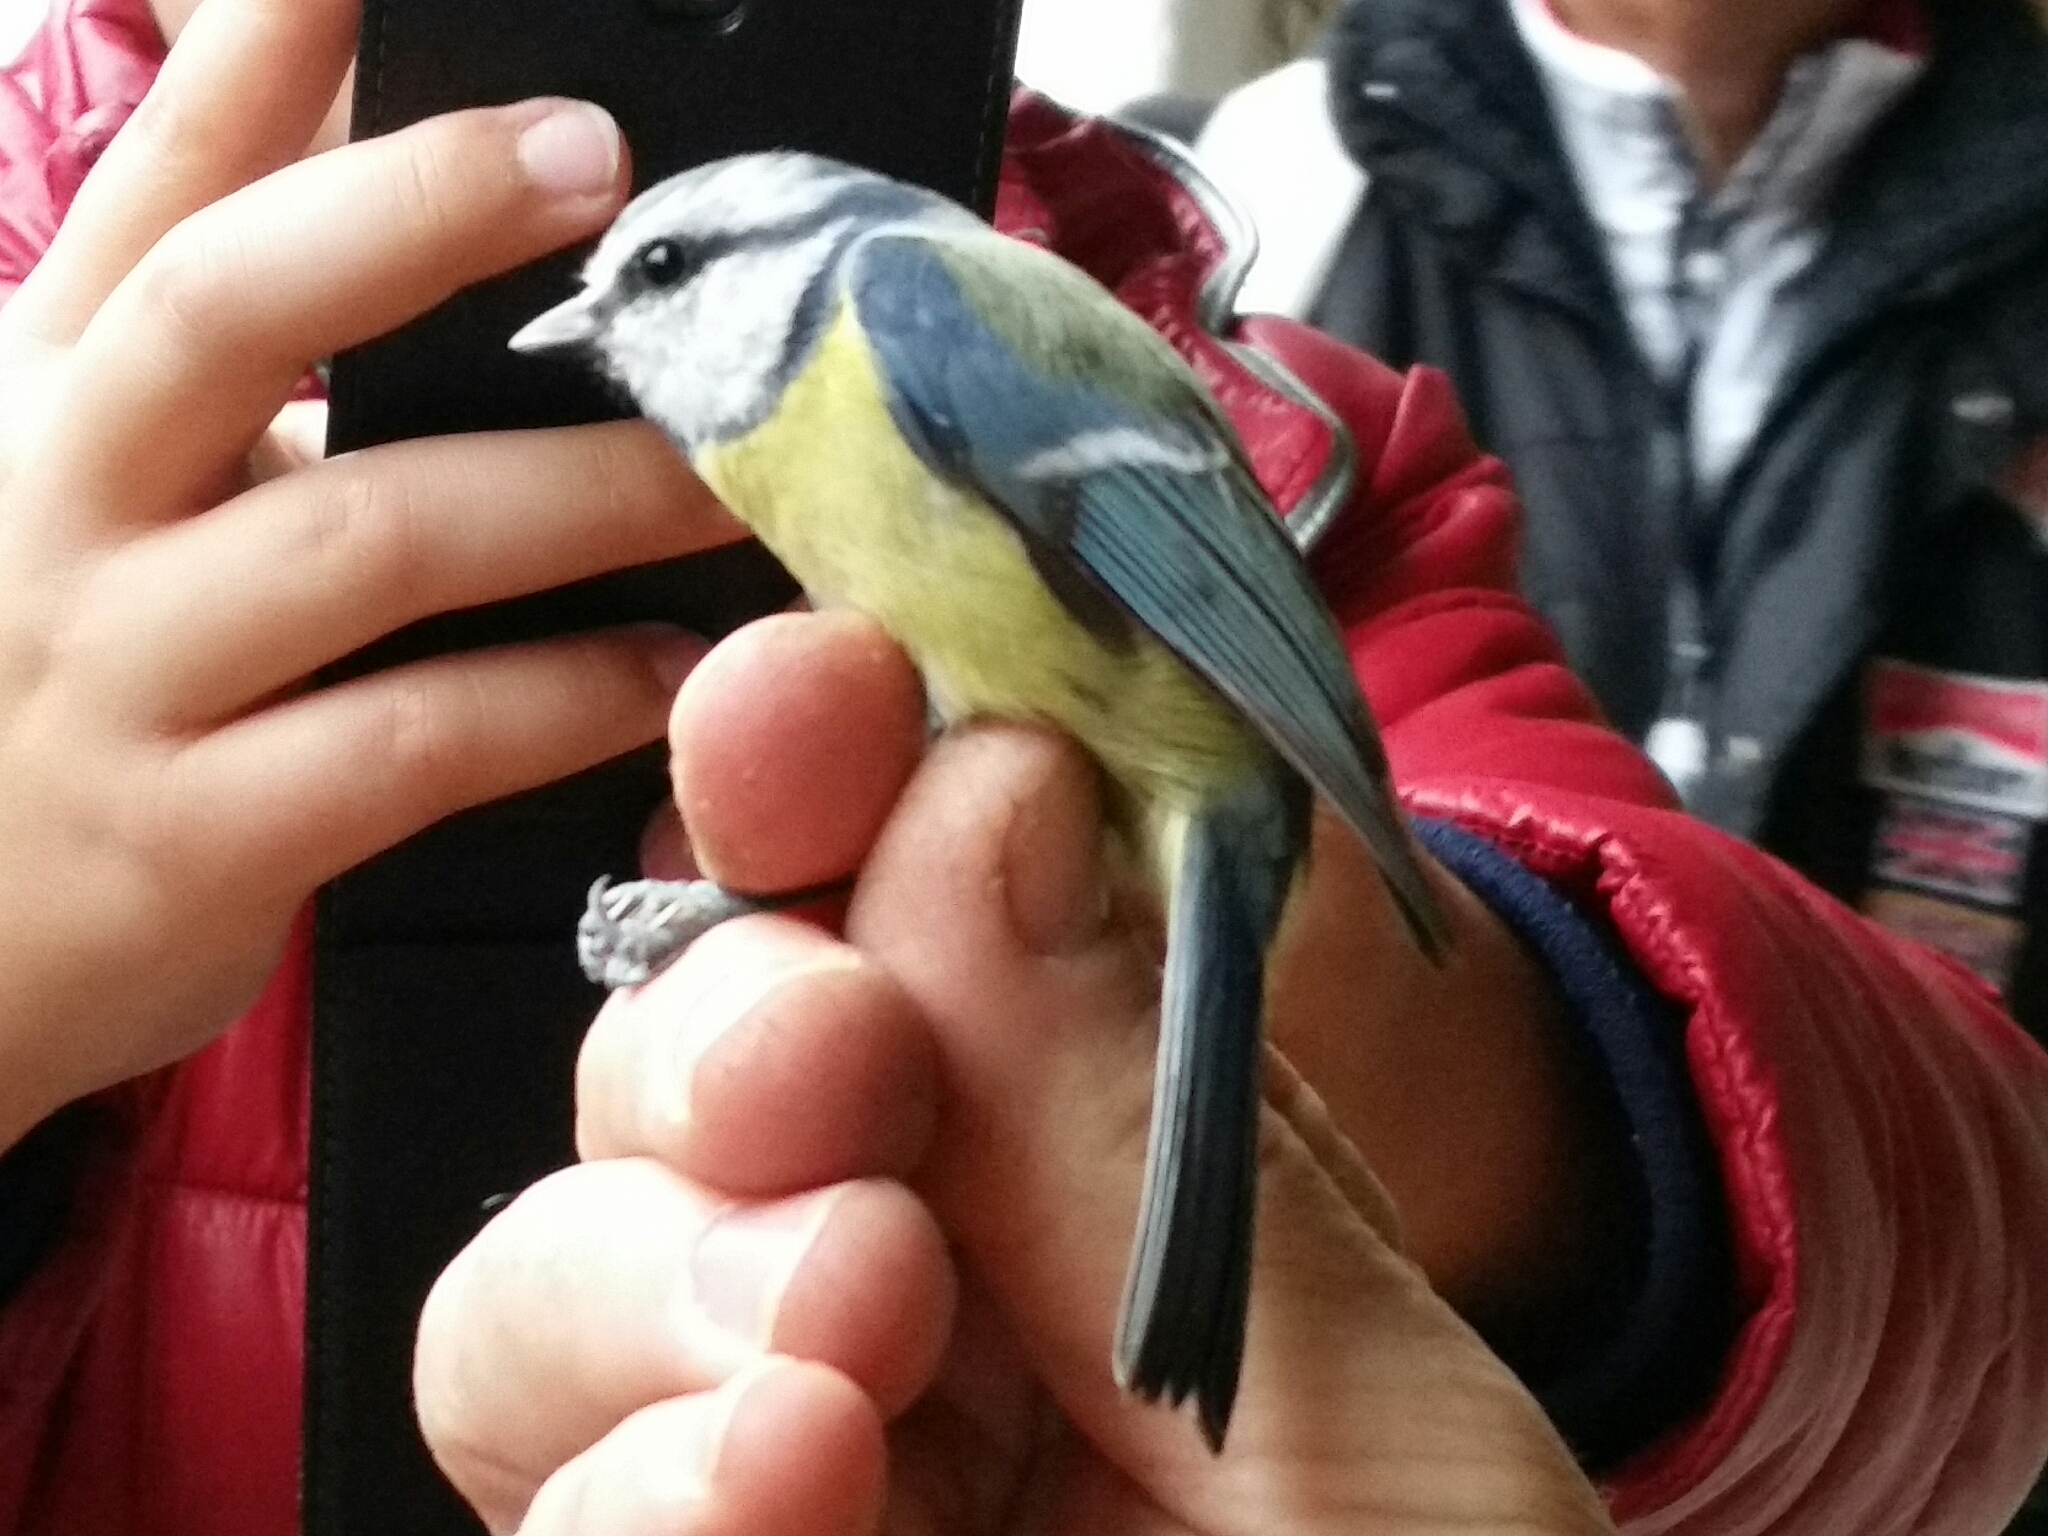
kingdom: Animalia
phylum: Chordata
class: Aves
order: Passeriformes
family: Paridae
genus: Cyanistes
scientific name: Cyanistes caeruleus
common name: Eurasian blue tit
